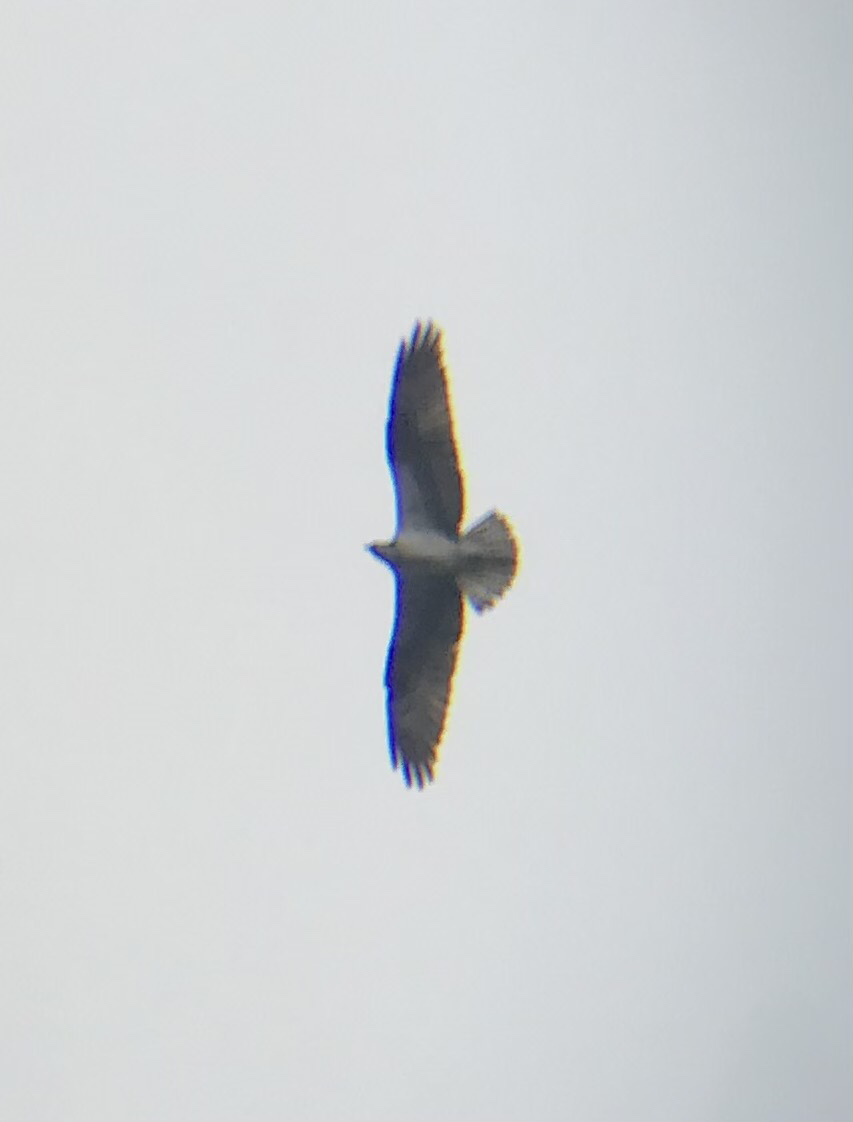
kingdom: Animalia
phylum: Chordata
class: Aves
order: Accipitriformes
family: Pandionidae
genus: Pandion
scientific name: Pandion haliaetus
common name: Osprey
